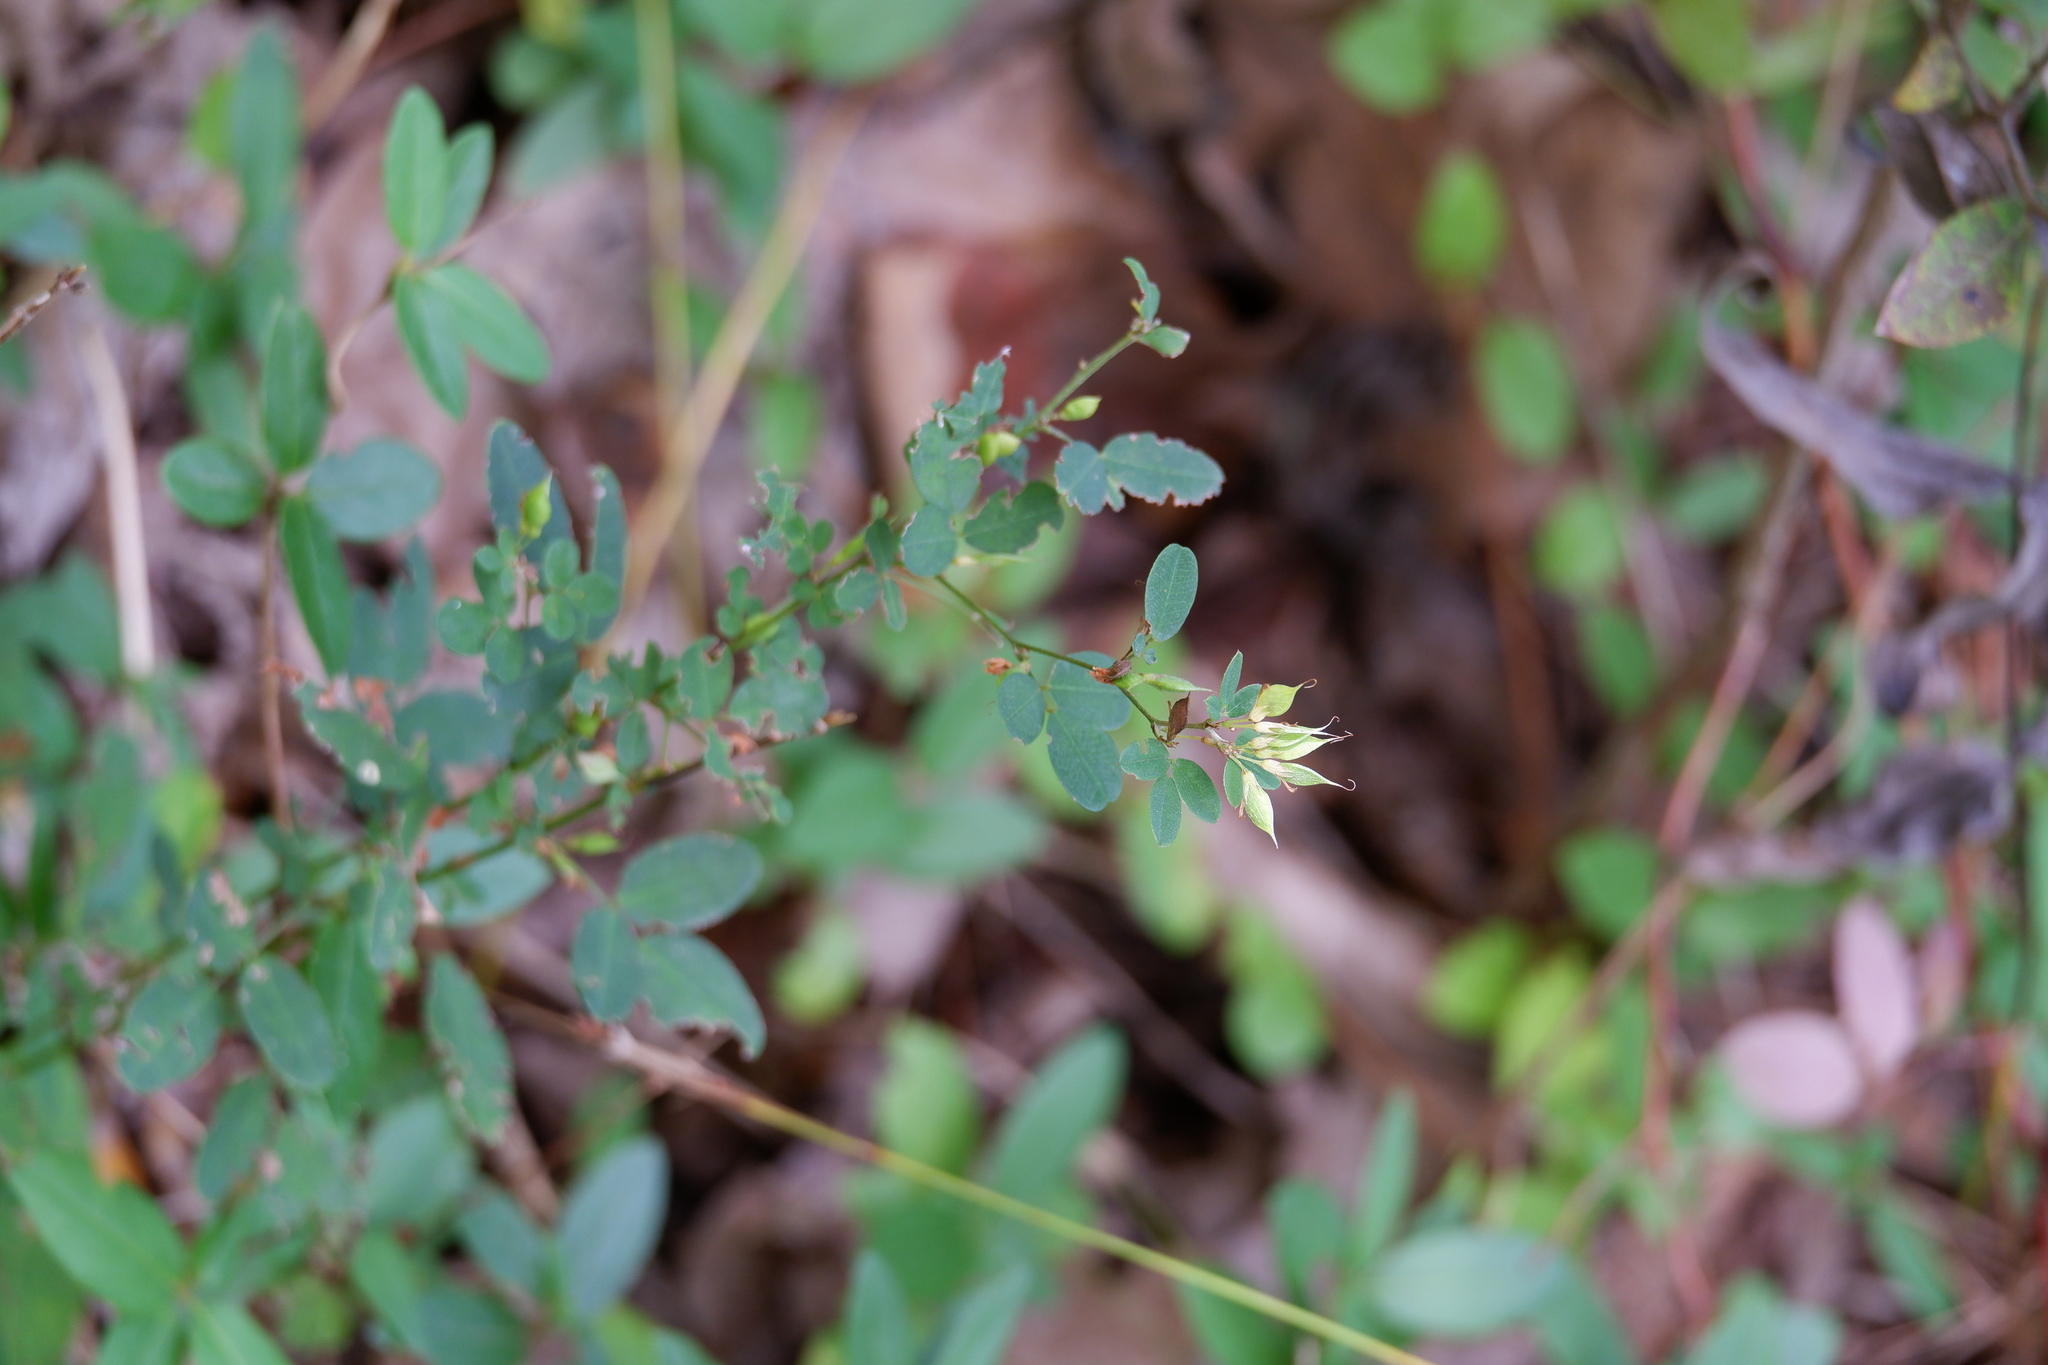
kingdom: Plantae
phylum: Tracheophyta
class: Magnoliopsida
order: Fabales
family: Fabaceae
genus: Lespedeza
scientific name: Lespedeza violacea
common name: Wand bush-clover
